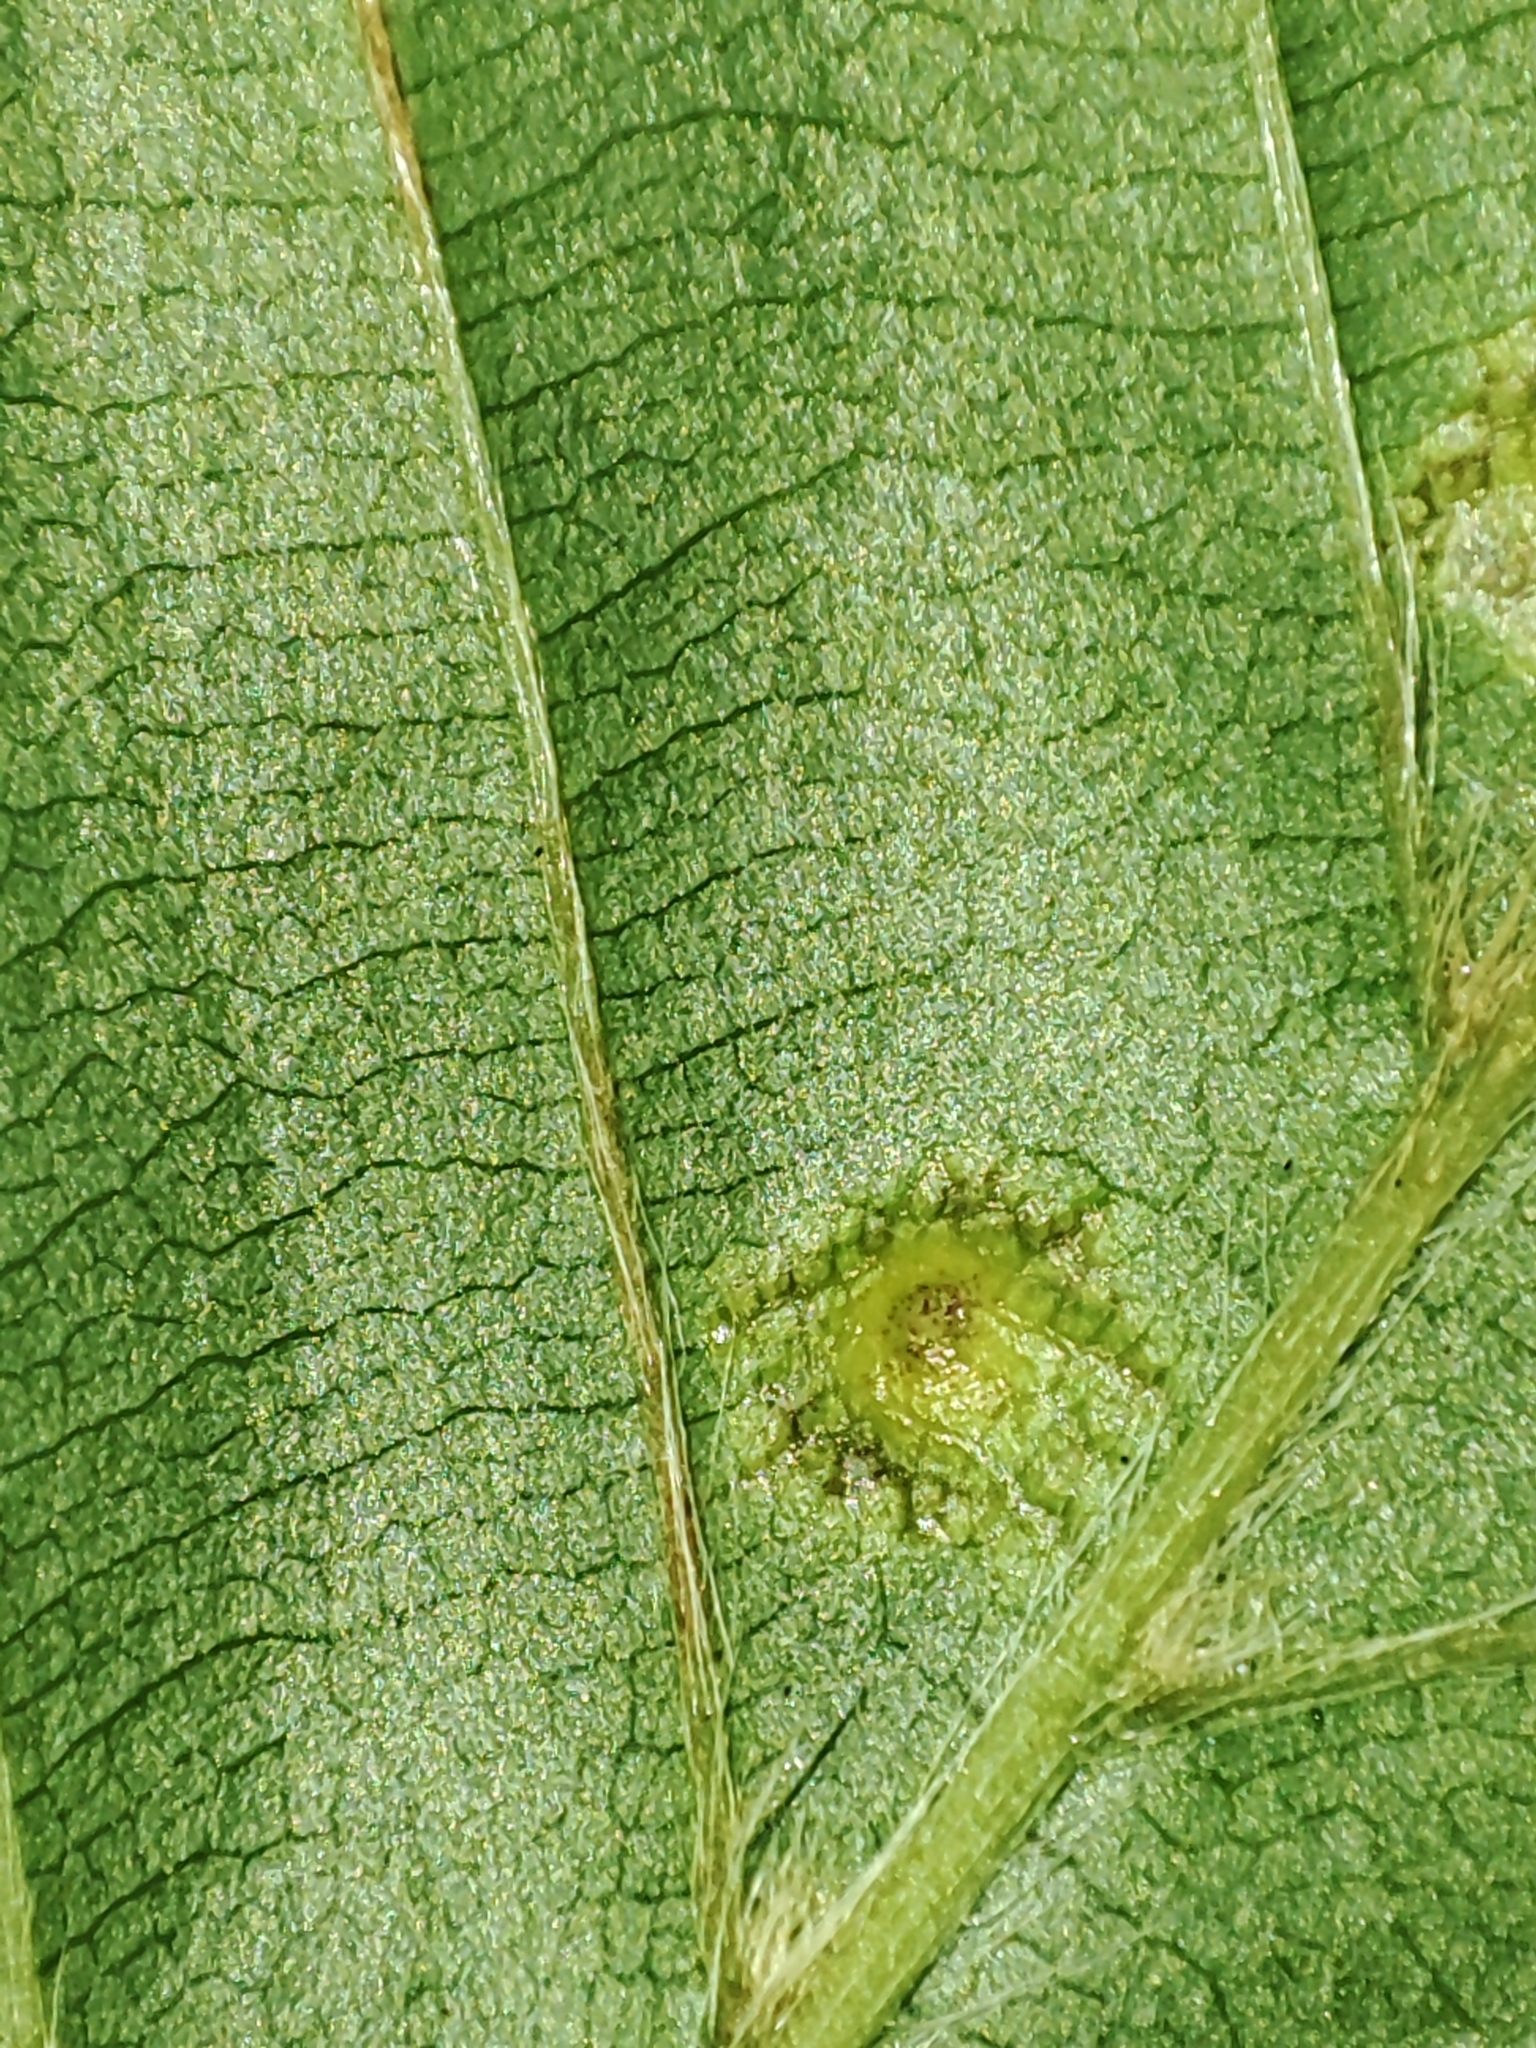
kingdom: Animalia
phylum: Arthropoda
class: Insecta
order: Diptera
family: Cecidomyiidae
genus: Hartigiola
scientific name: Hartigiola annulipes
